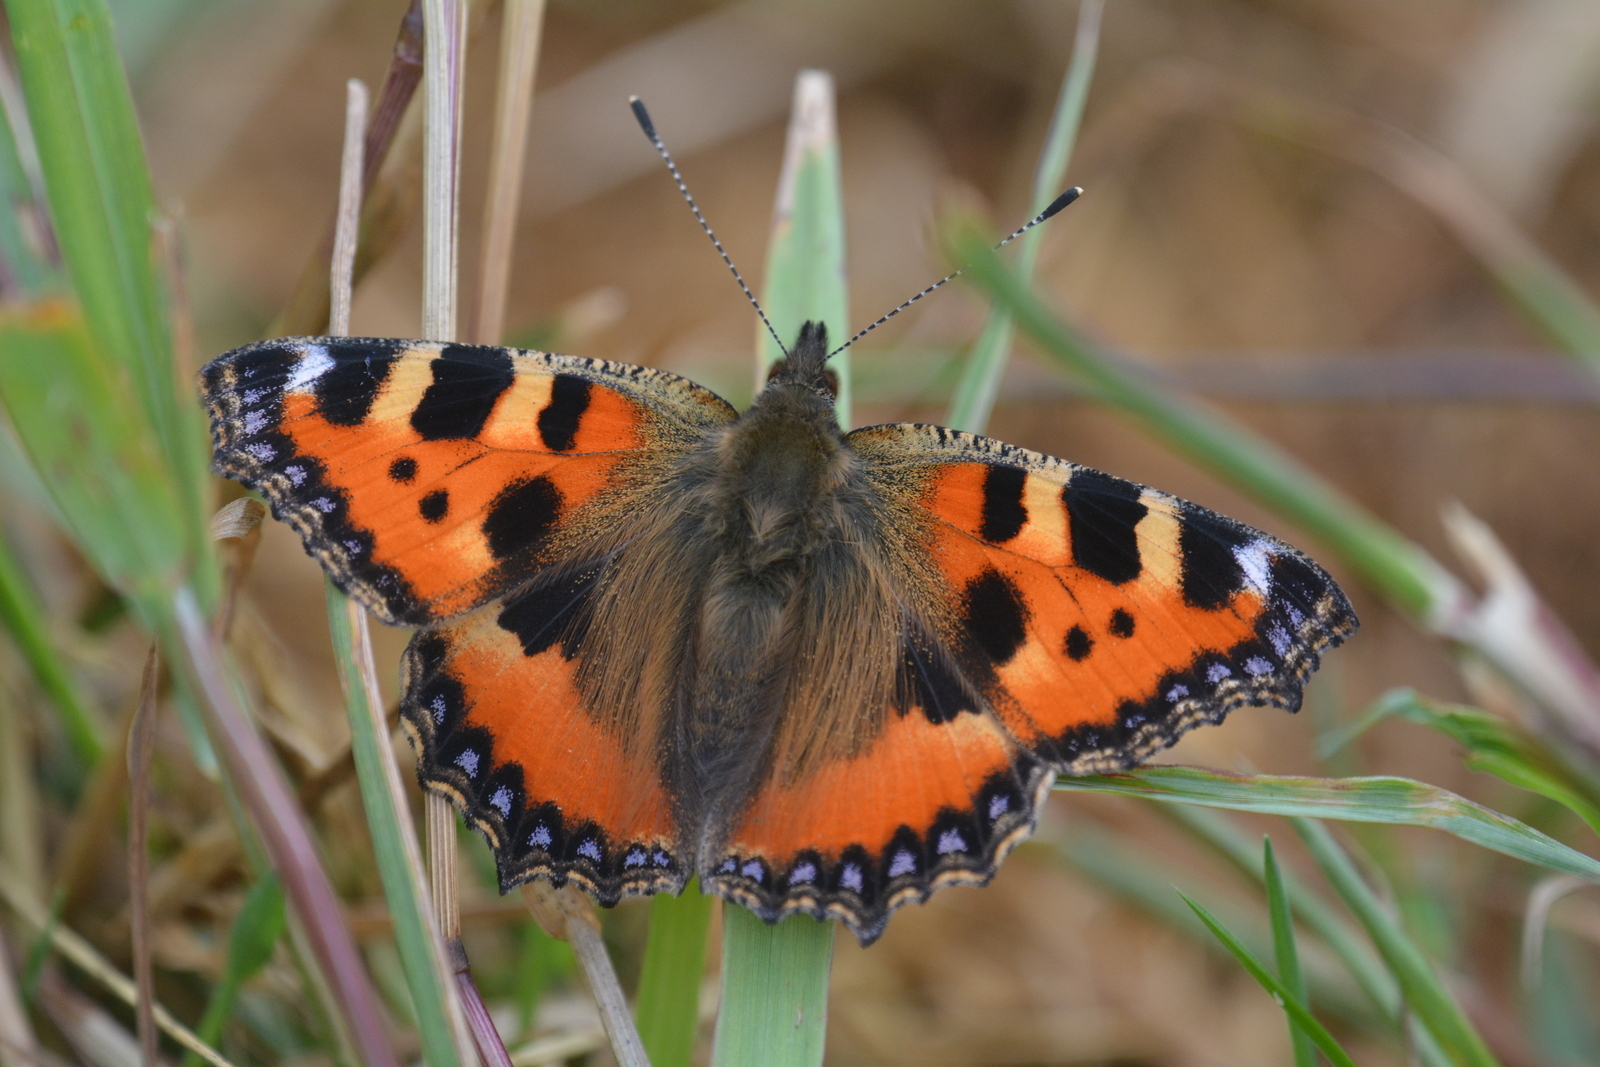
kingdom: Animalia
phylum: Arthropoda
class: Insecta
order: Lepidoptera
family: Nymphalidae
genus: Aglais
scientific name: Aglais urticae
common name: Small tortoiseshell
